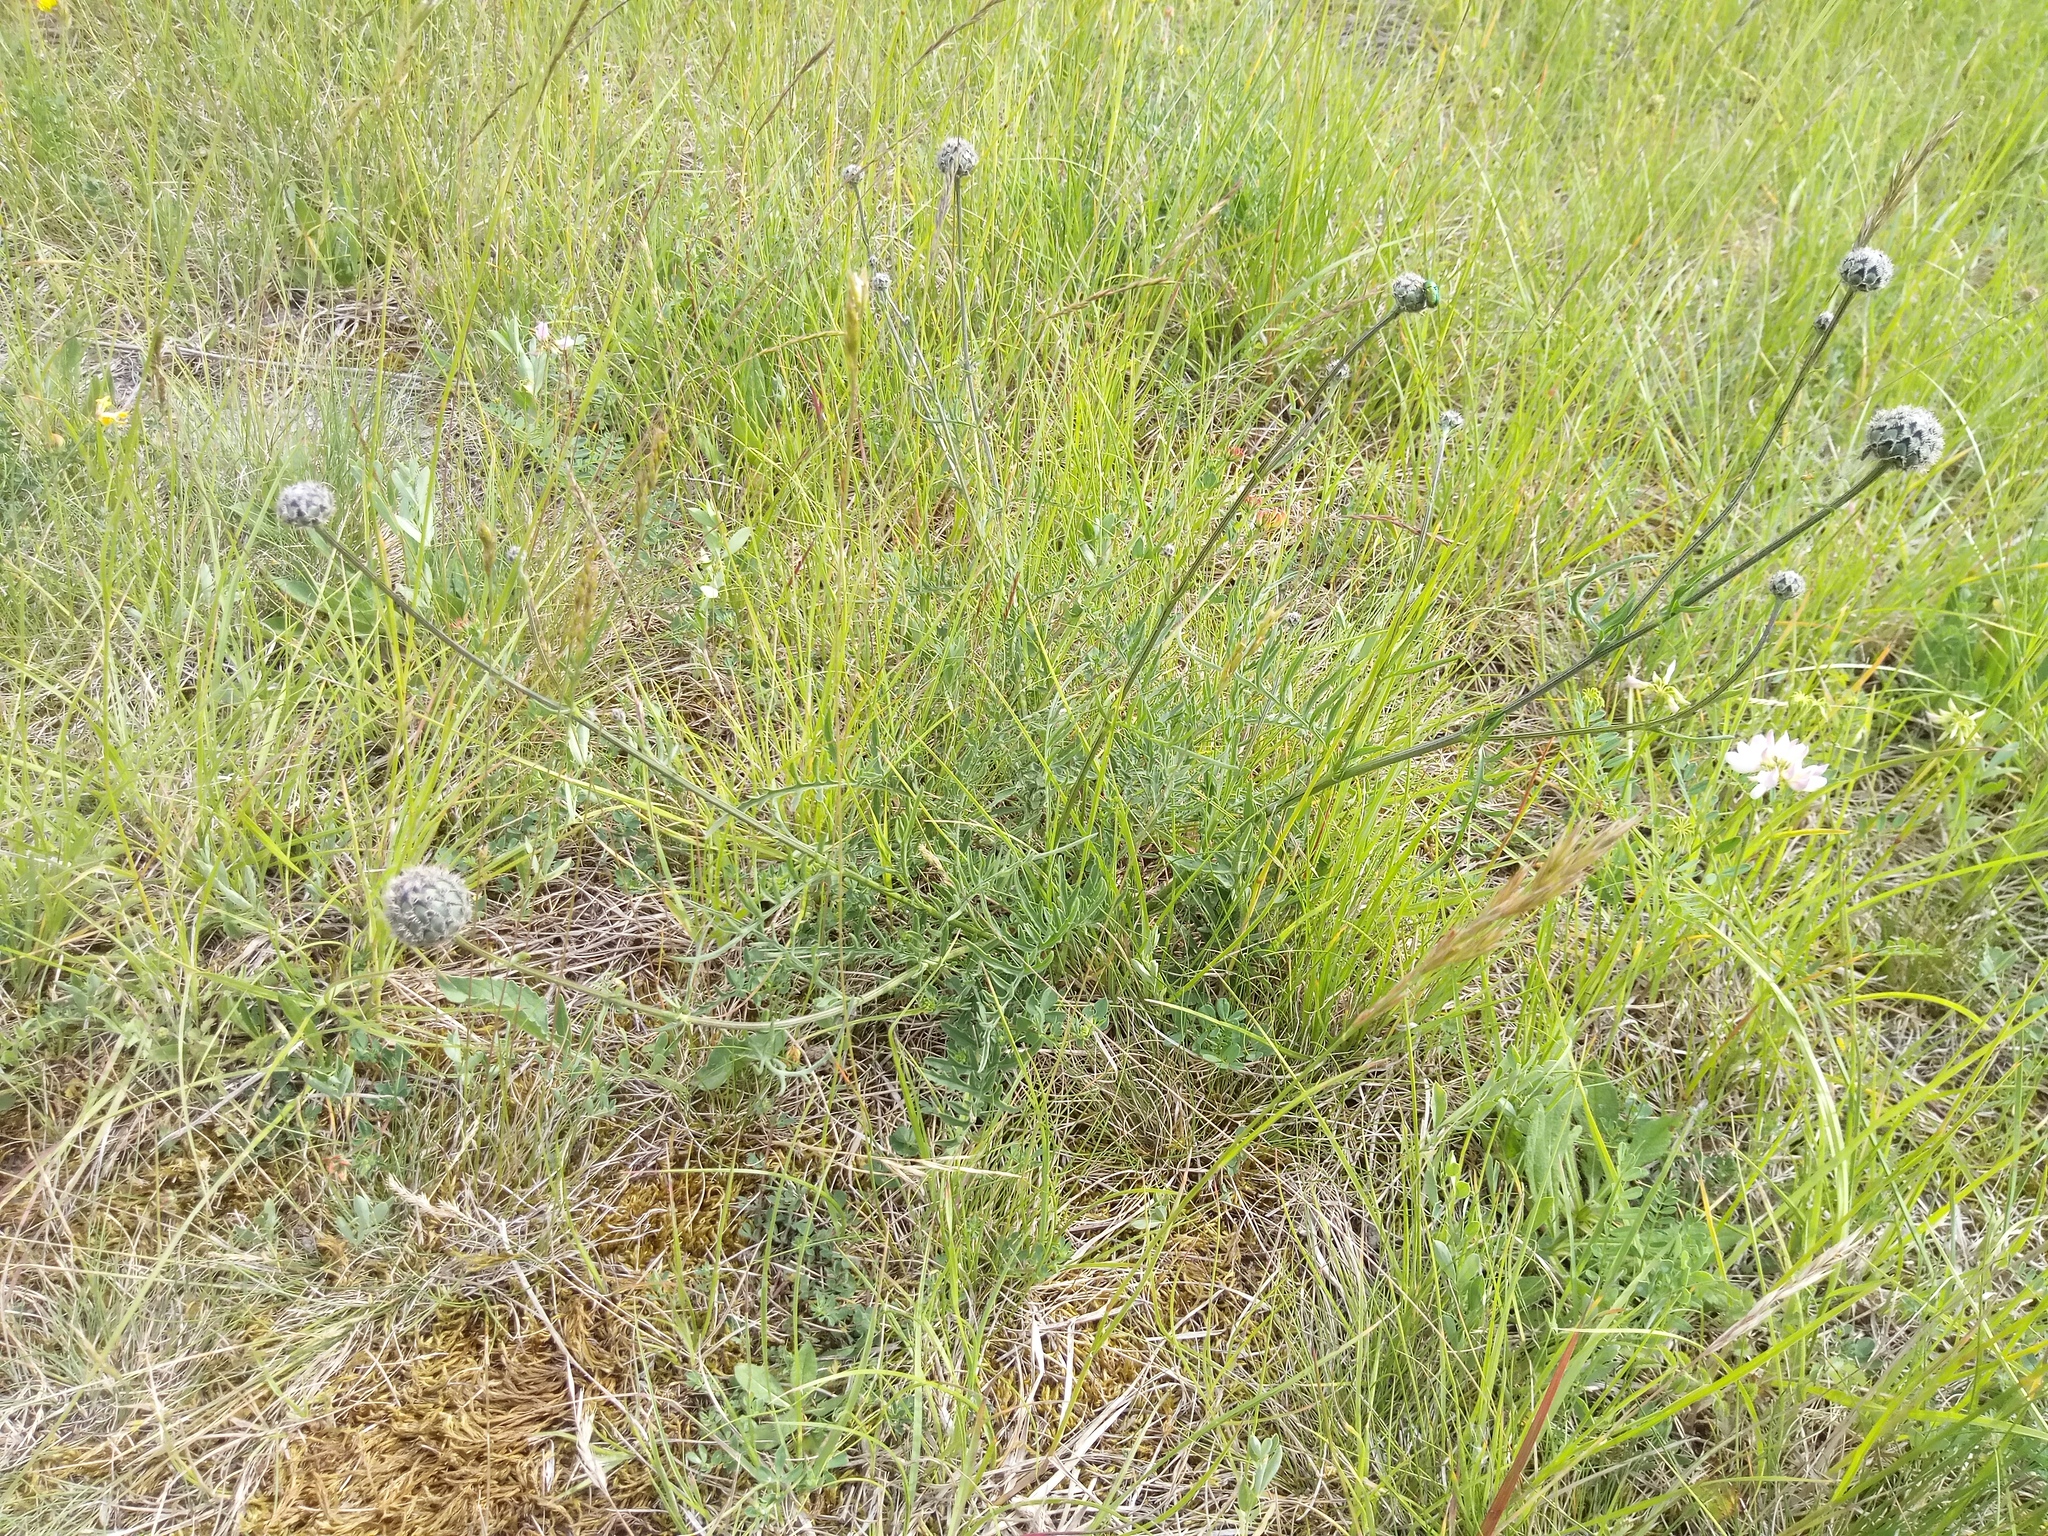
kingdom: Plantae
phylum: Tracheophyta
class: Magnoliopsida
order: Asterales
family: Asteraceae
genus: Centaurea
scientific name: Centaurea scabiosa
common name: Greater knapweed
